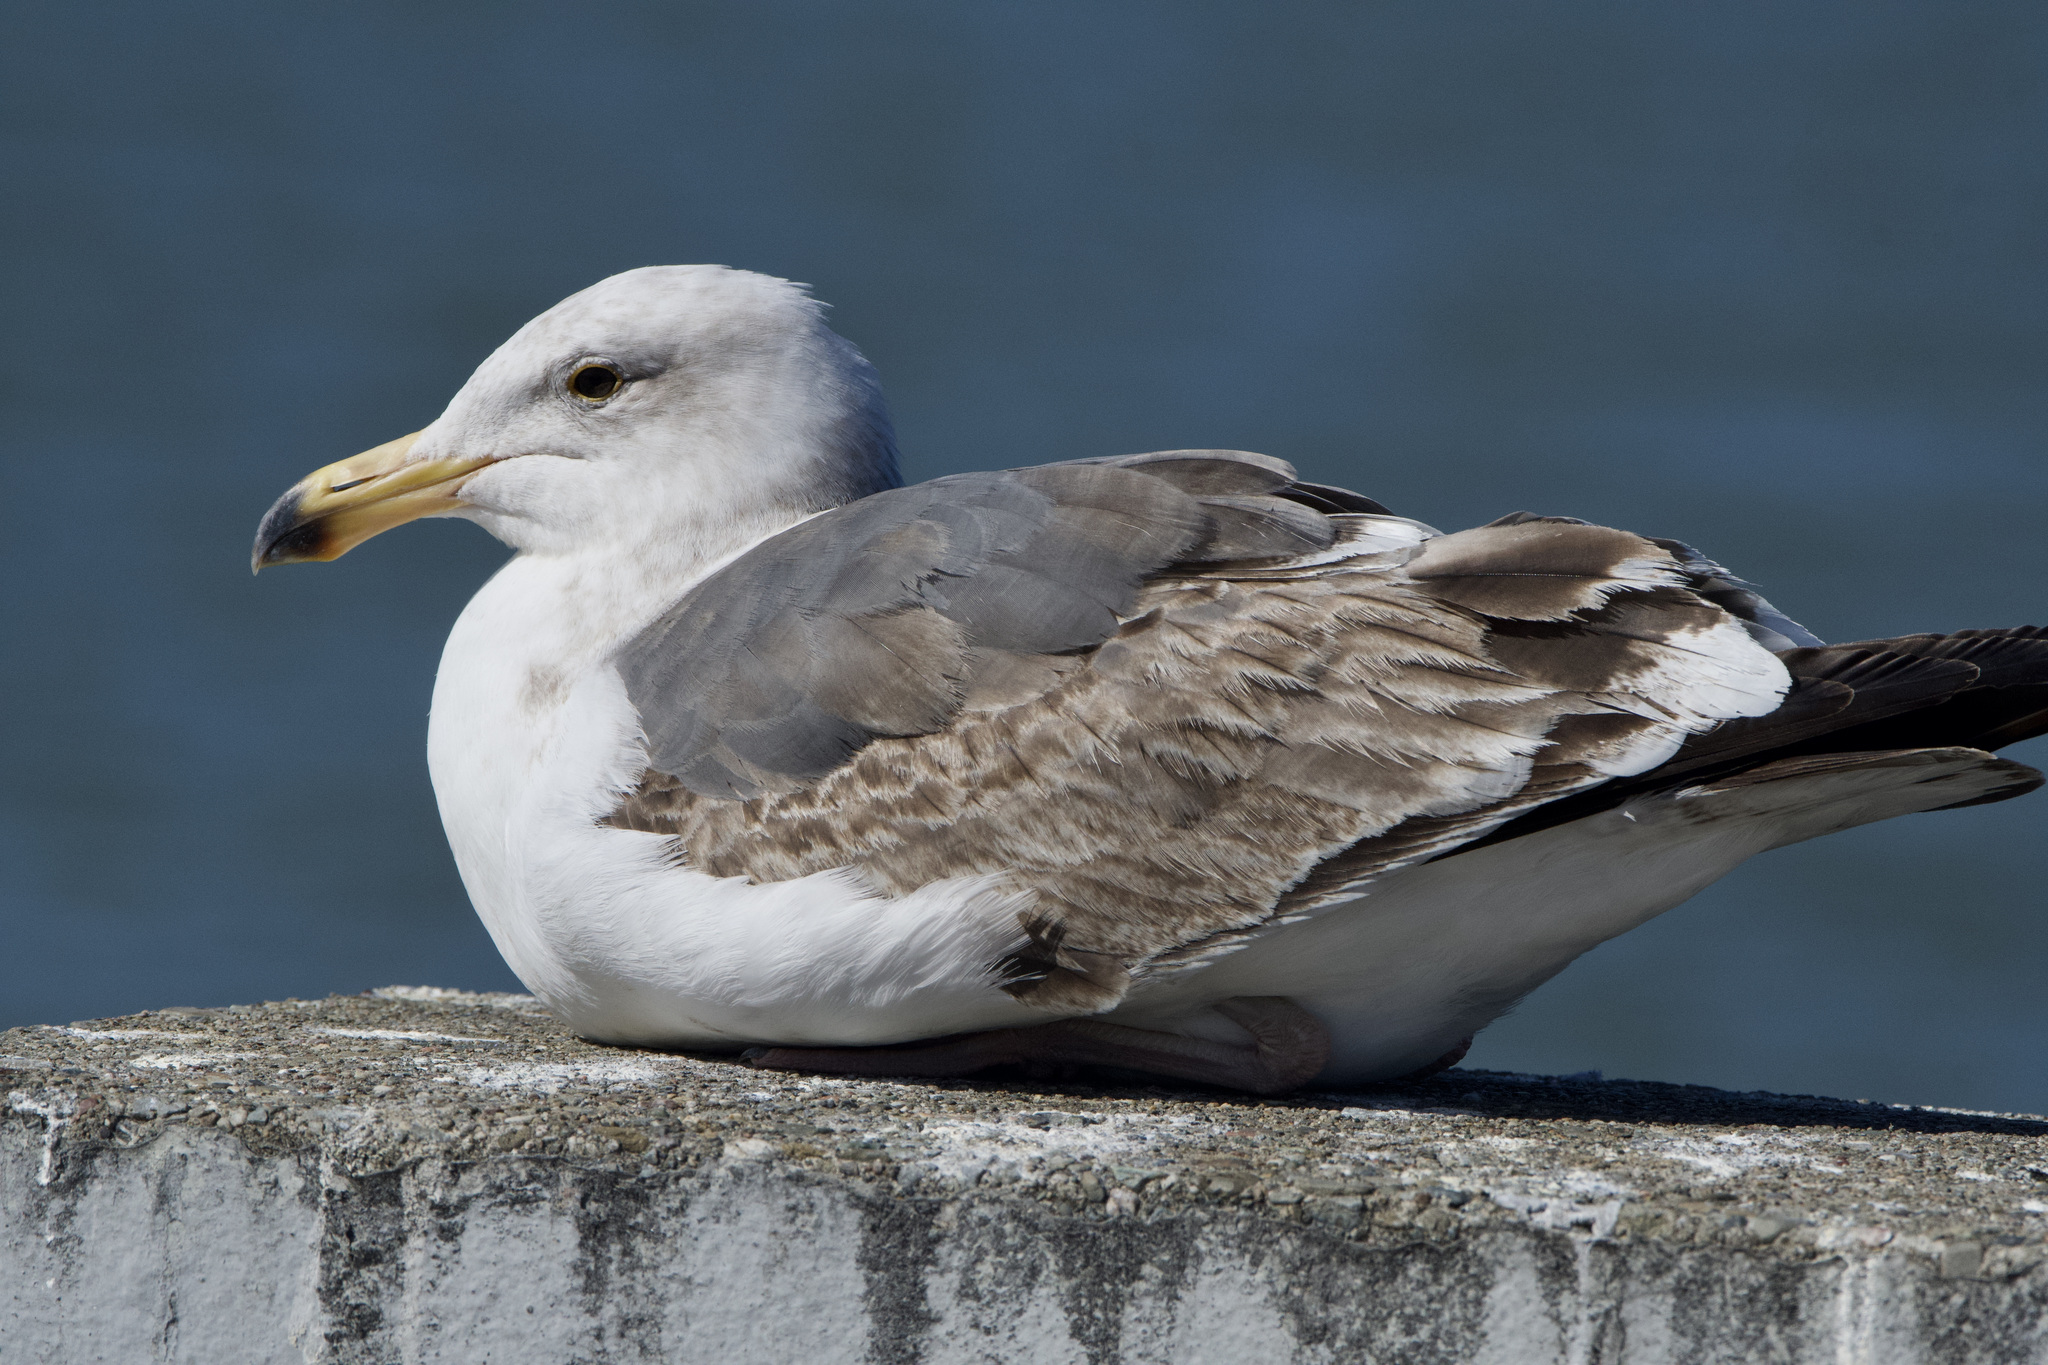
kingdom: Animalia
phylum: Chordata
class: Aves
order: Charadriiformes
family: Laridae
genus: Larus
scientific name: Larus occidentalis
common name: Western gull
